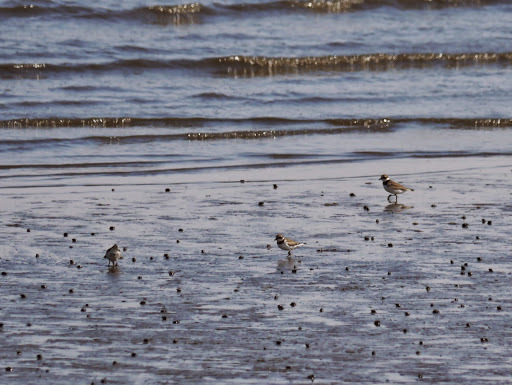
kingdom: Animalia
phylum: Chordata
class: Aves
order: Charadriiformes
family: Charadriidae
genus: Charadrius
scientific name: Charadrius semipalmatus
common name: Semipalmated plover
